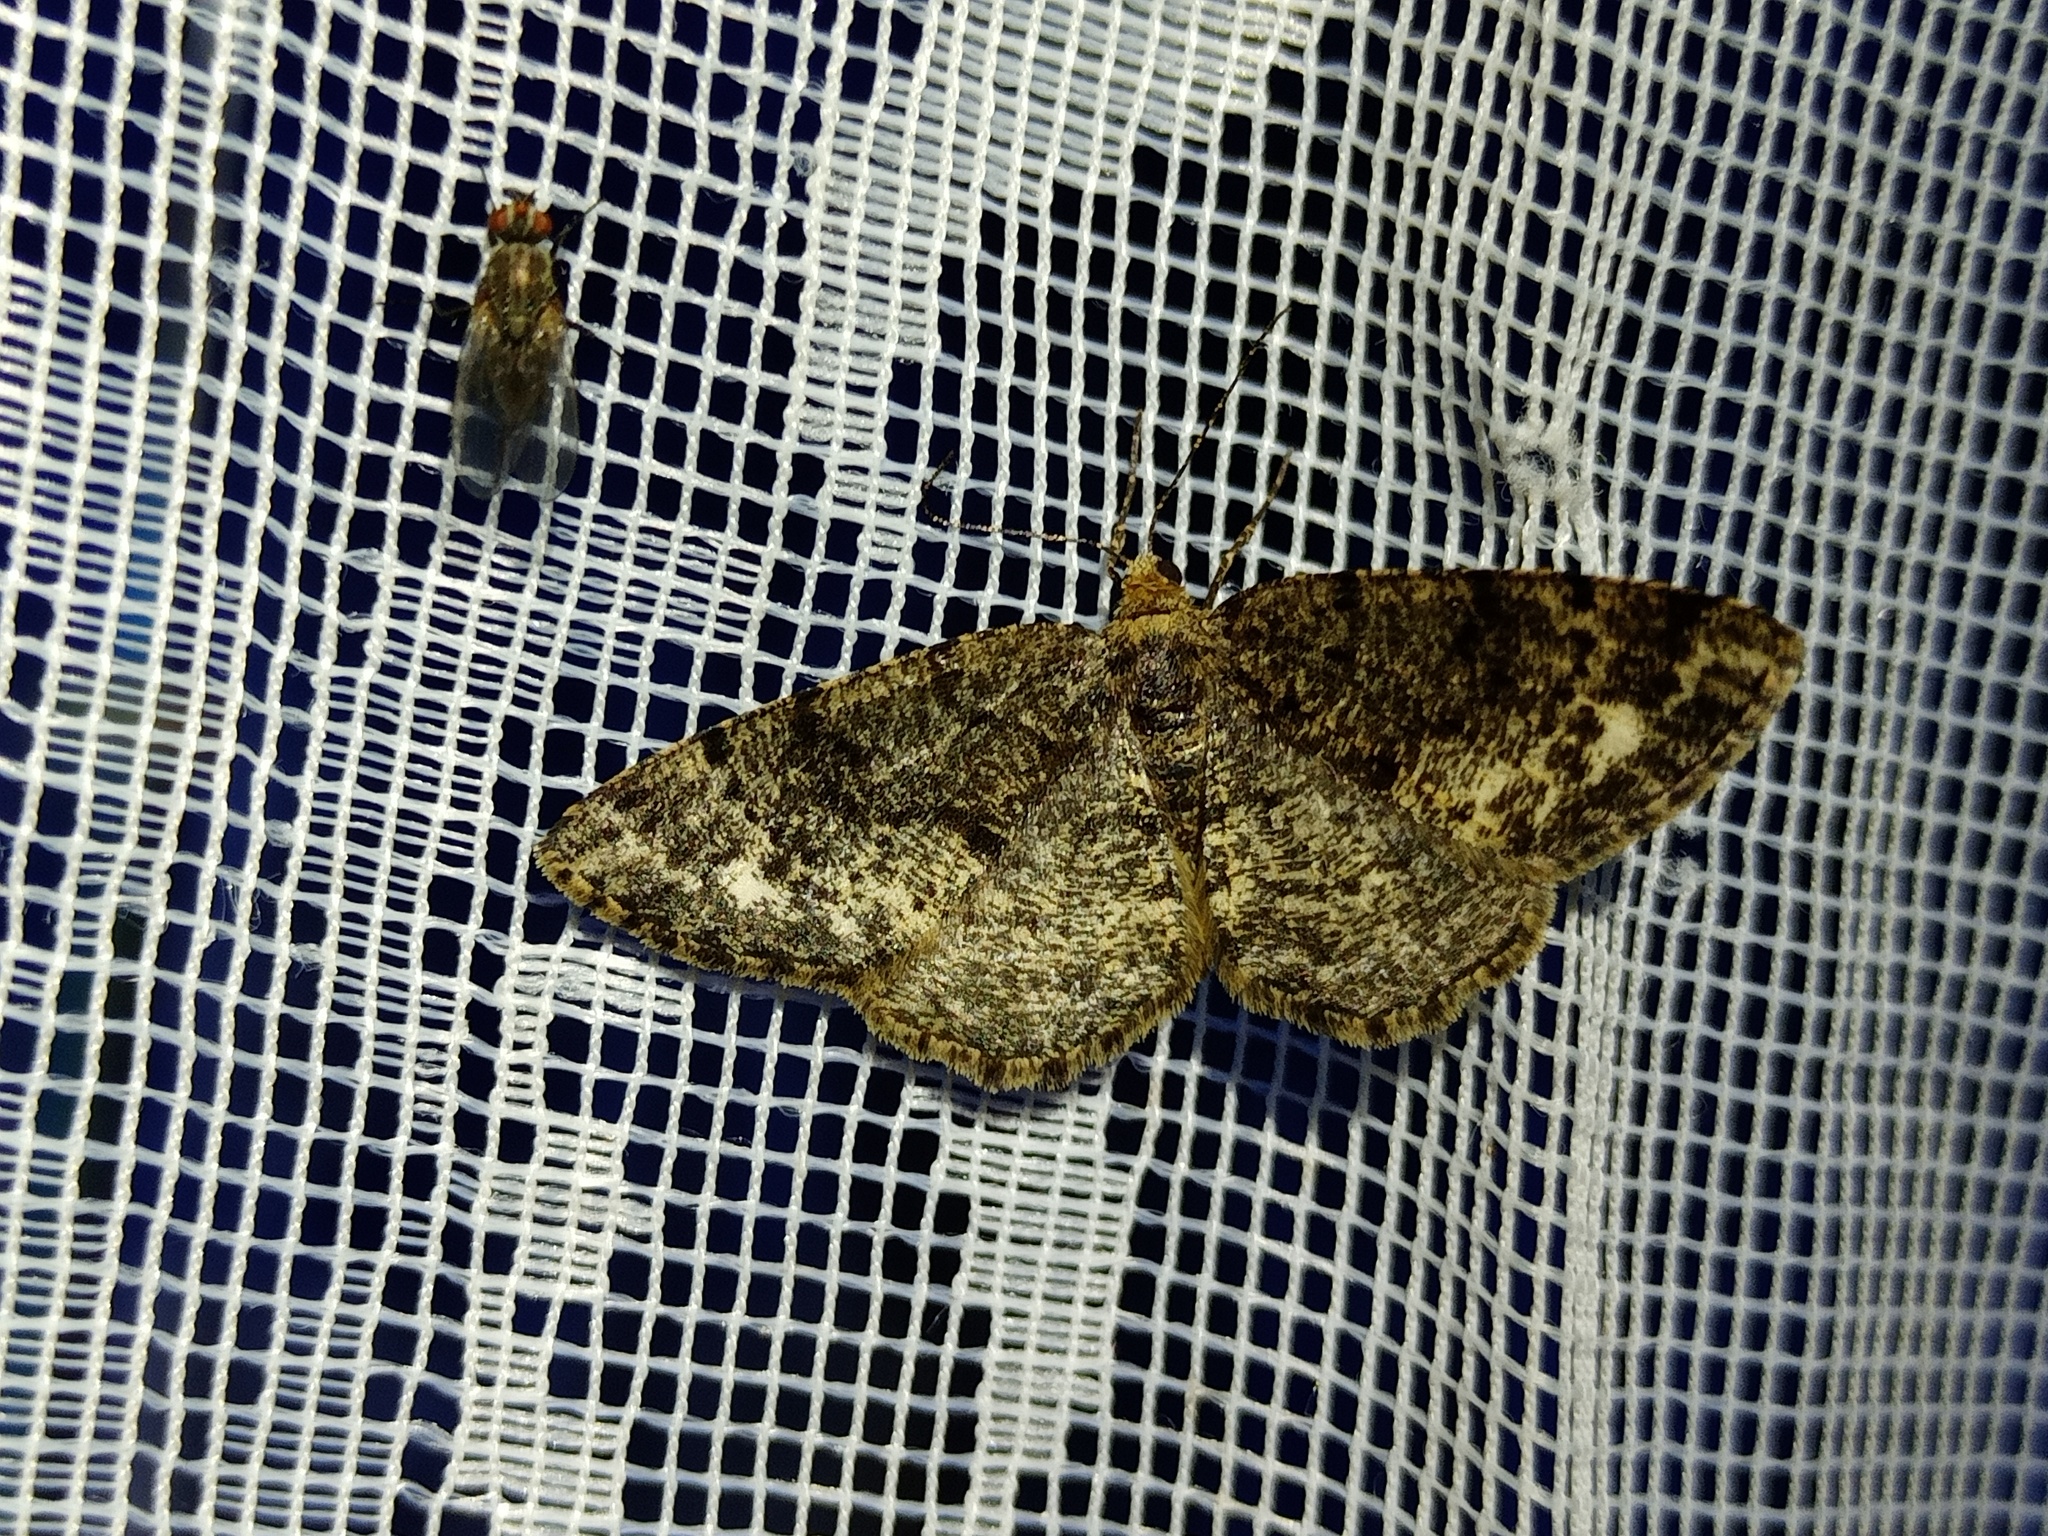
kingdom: Animalia
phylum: Arthropoda
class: Insecta
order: Lepidoptera
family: Geometridae
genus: Parectropis
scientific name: Parectropis similaria
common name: Brindled white-spot
